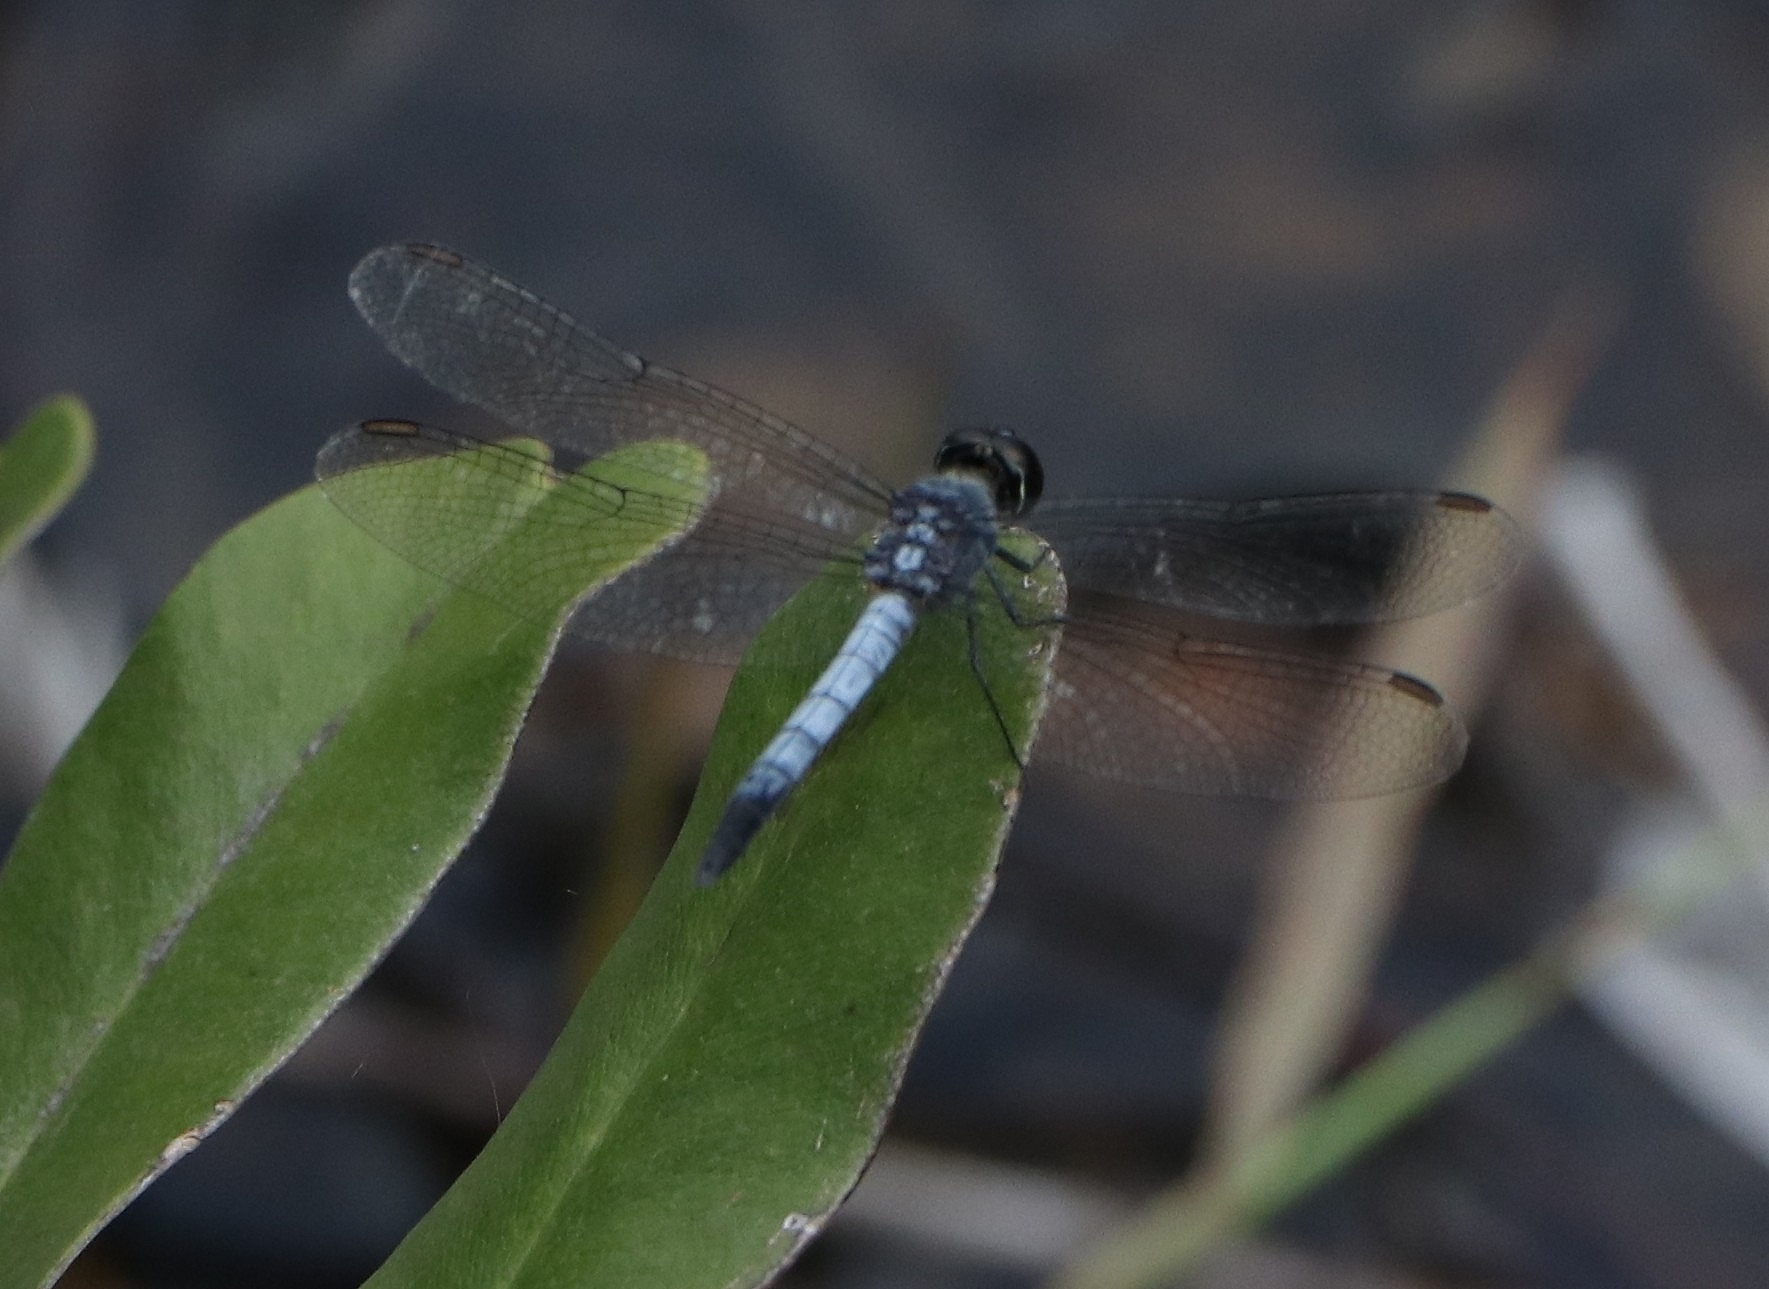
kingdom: Animalia
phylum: Arthropoda
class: Insecta
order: Odonata
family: Libellulidae
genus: Brachydiplax
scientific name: Brachydiplax sobrina
